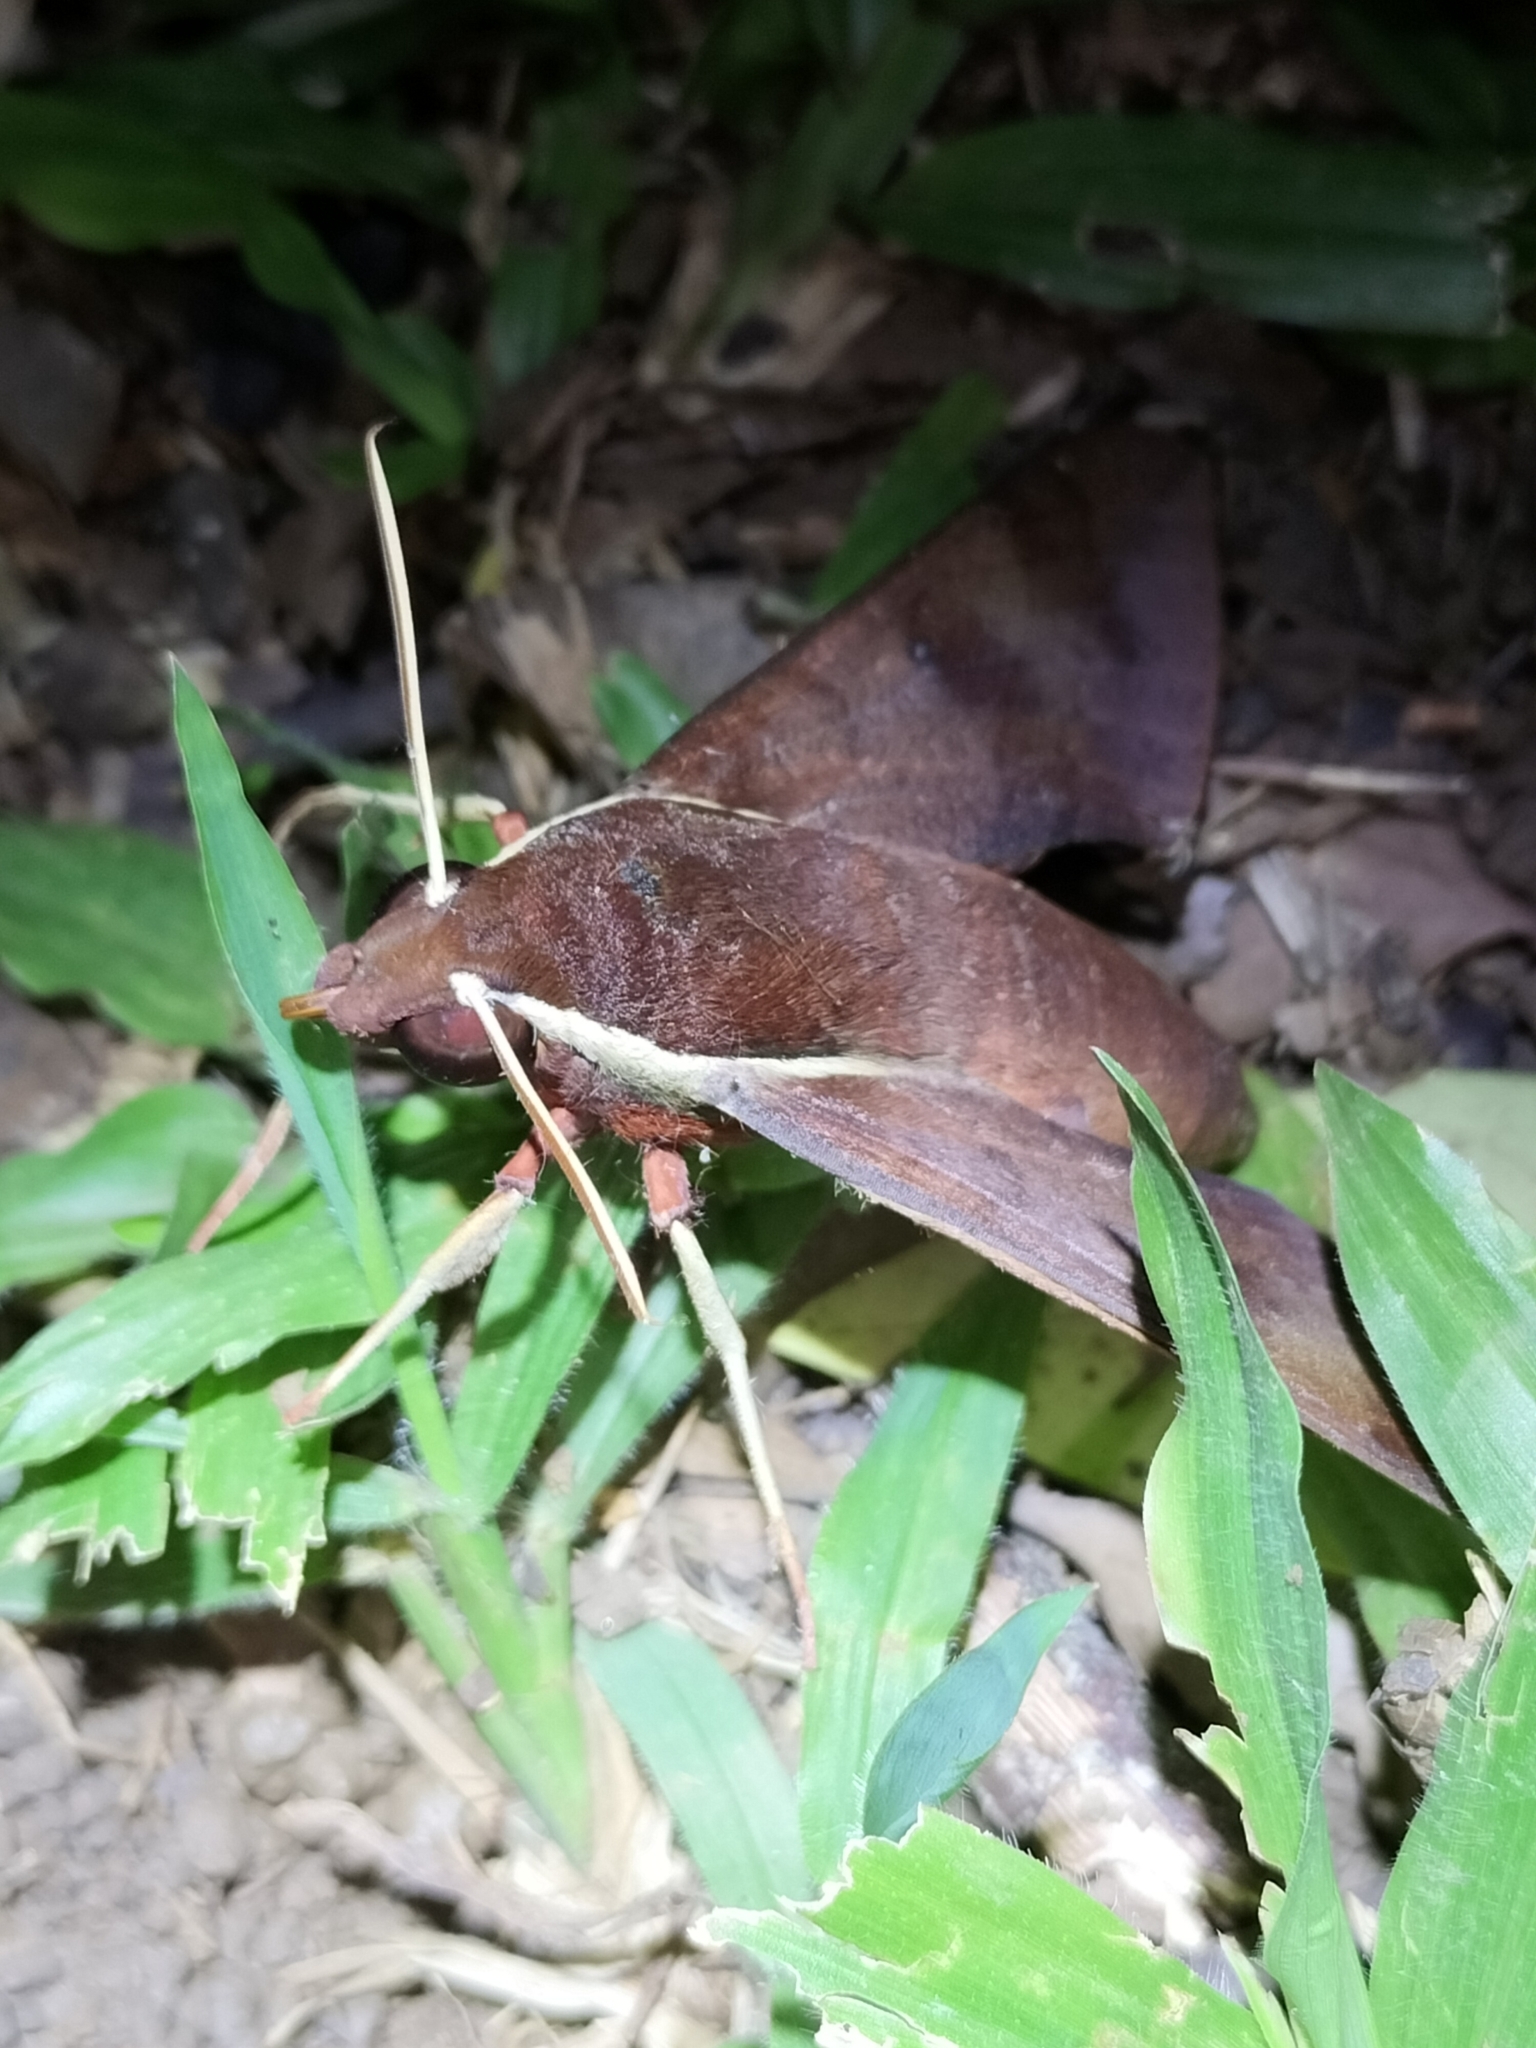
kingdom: Animalia
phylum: Arthropoda
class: Insecta
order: Lepidoptera
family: Sphingidae
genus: Gnathothlibus
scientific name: Gnathothlibus eras
